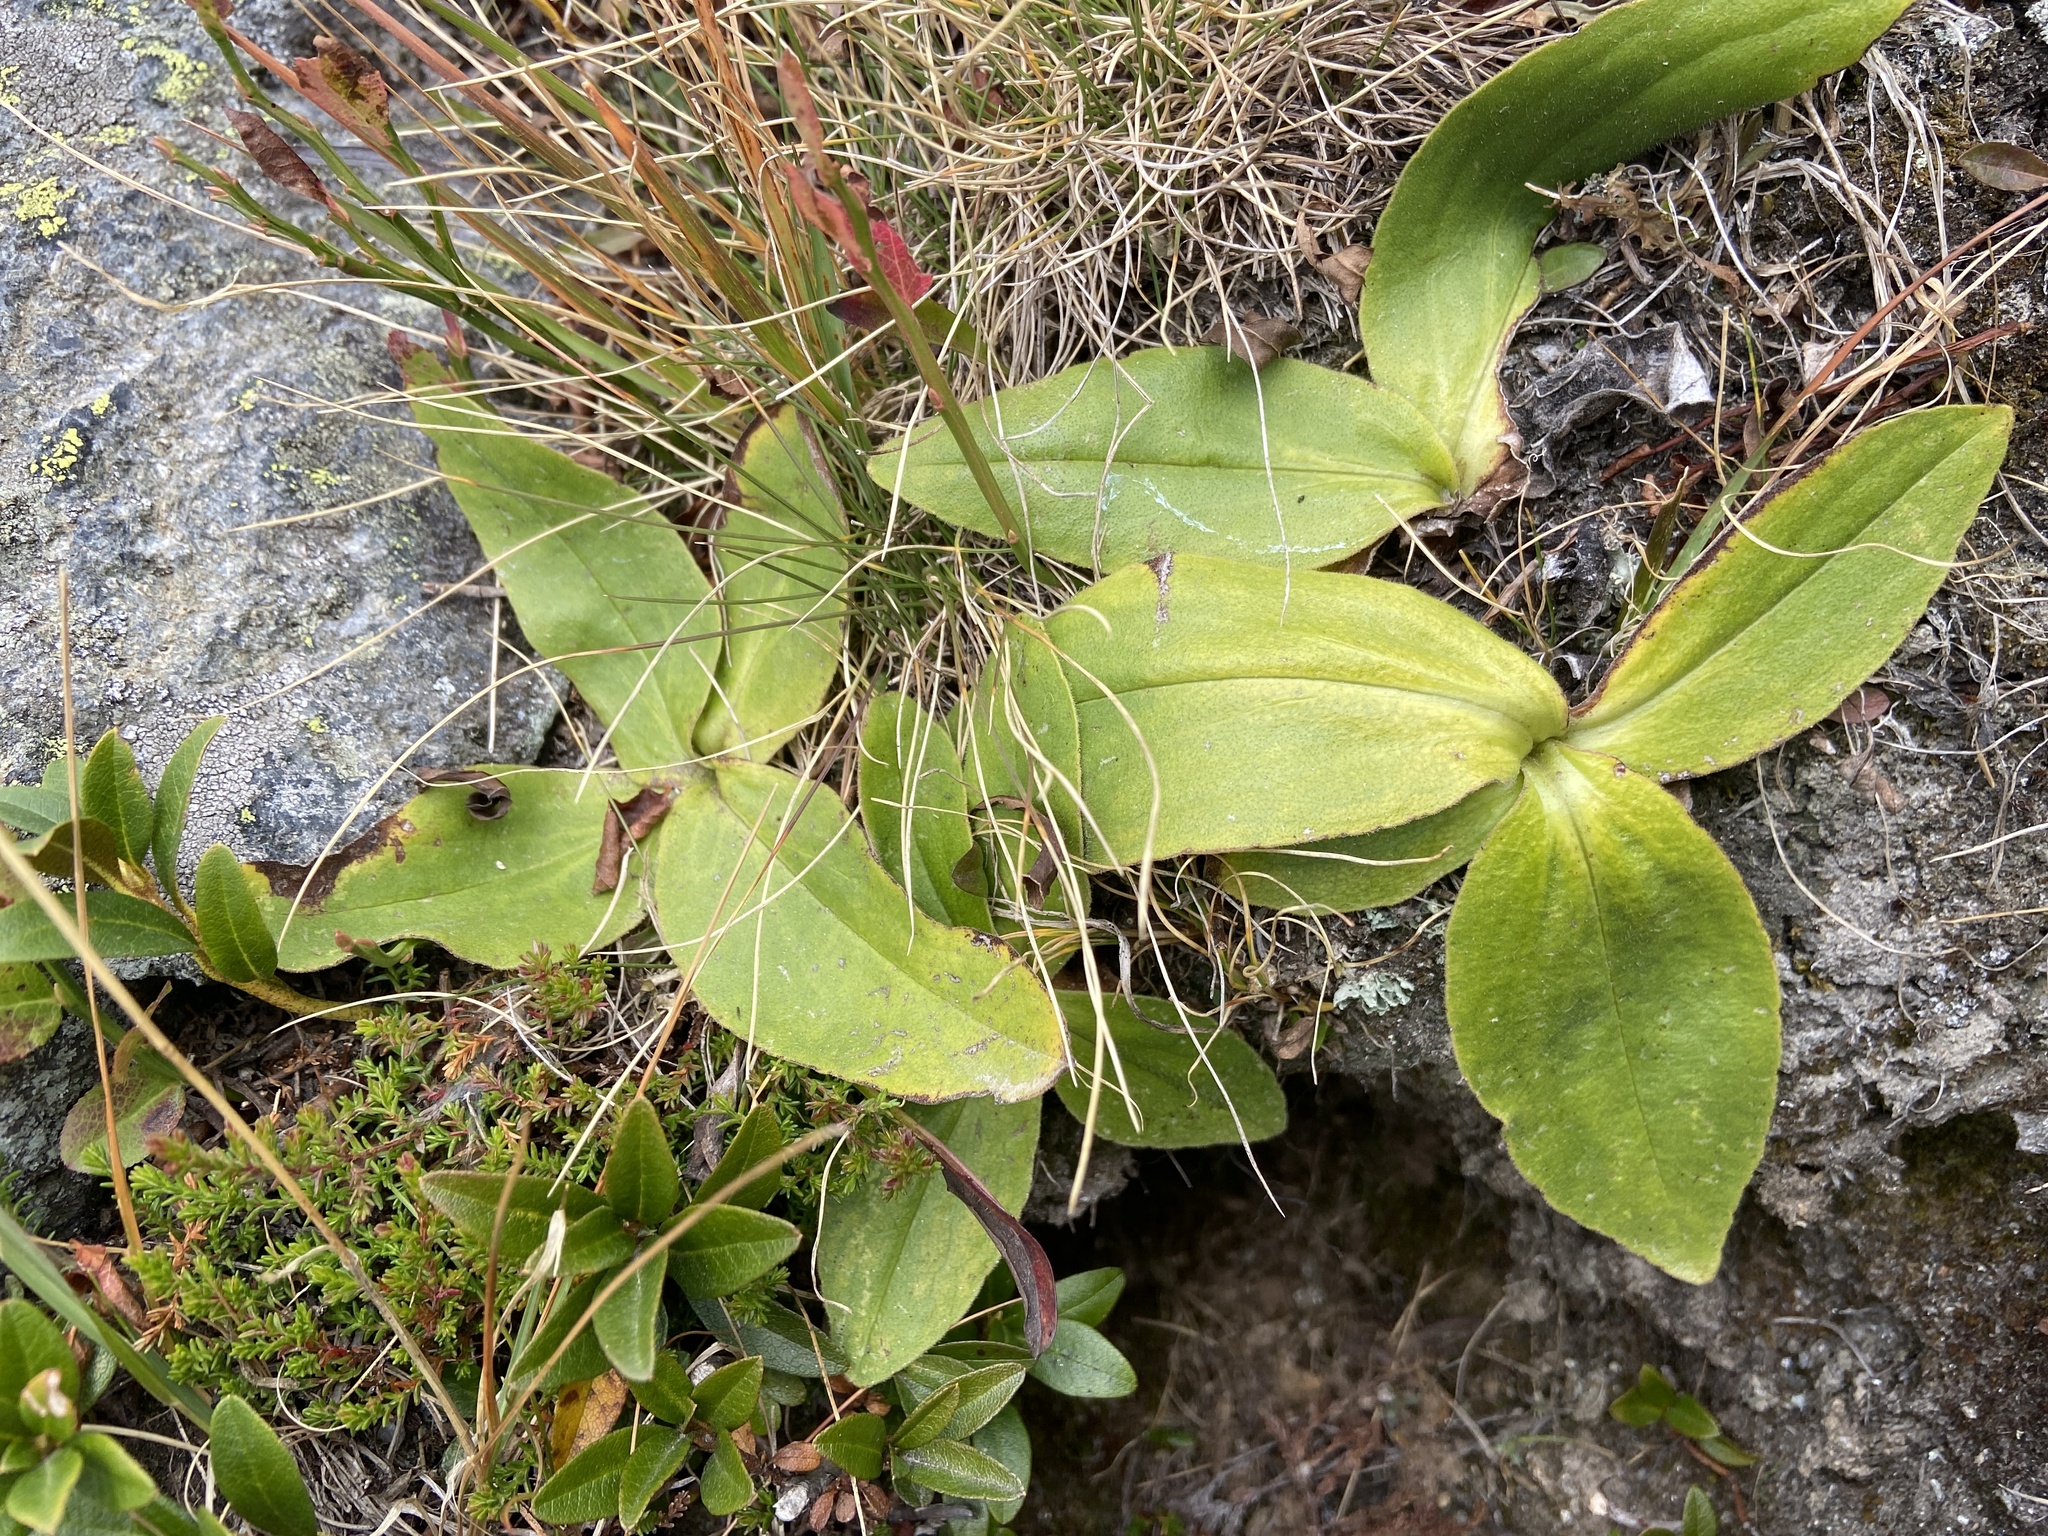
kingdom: Plantae
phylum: Tracheophyta
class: Magnoliopsida
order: Asterales
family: Asteraceae
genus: Arnica
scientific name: Arnica montana
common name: Leopard's bane
